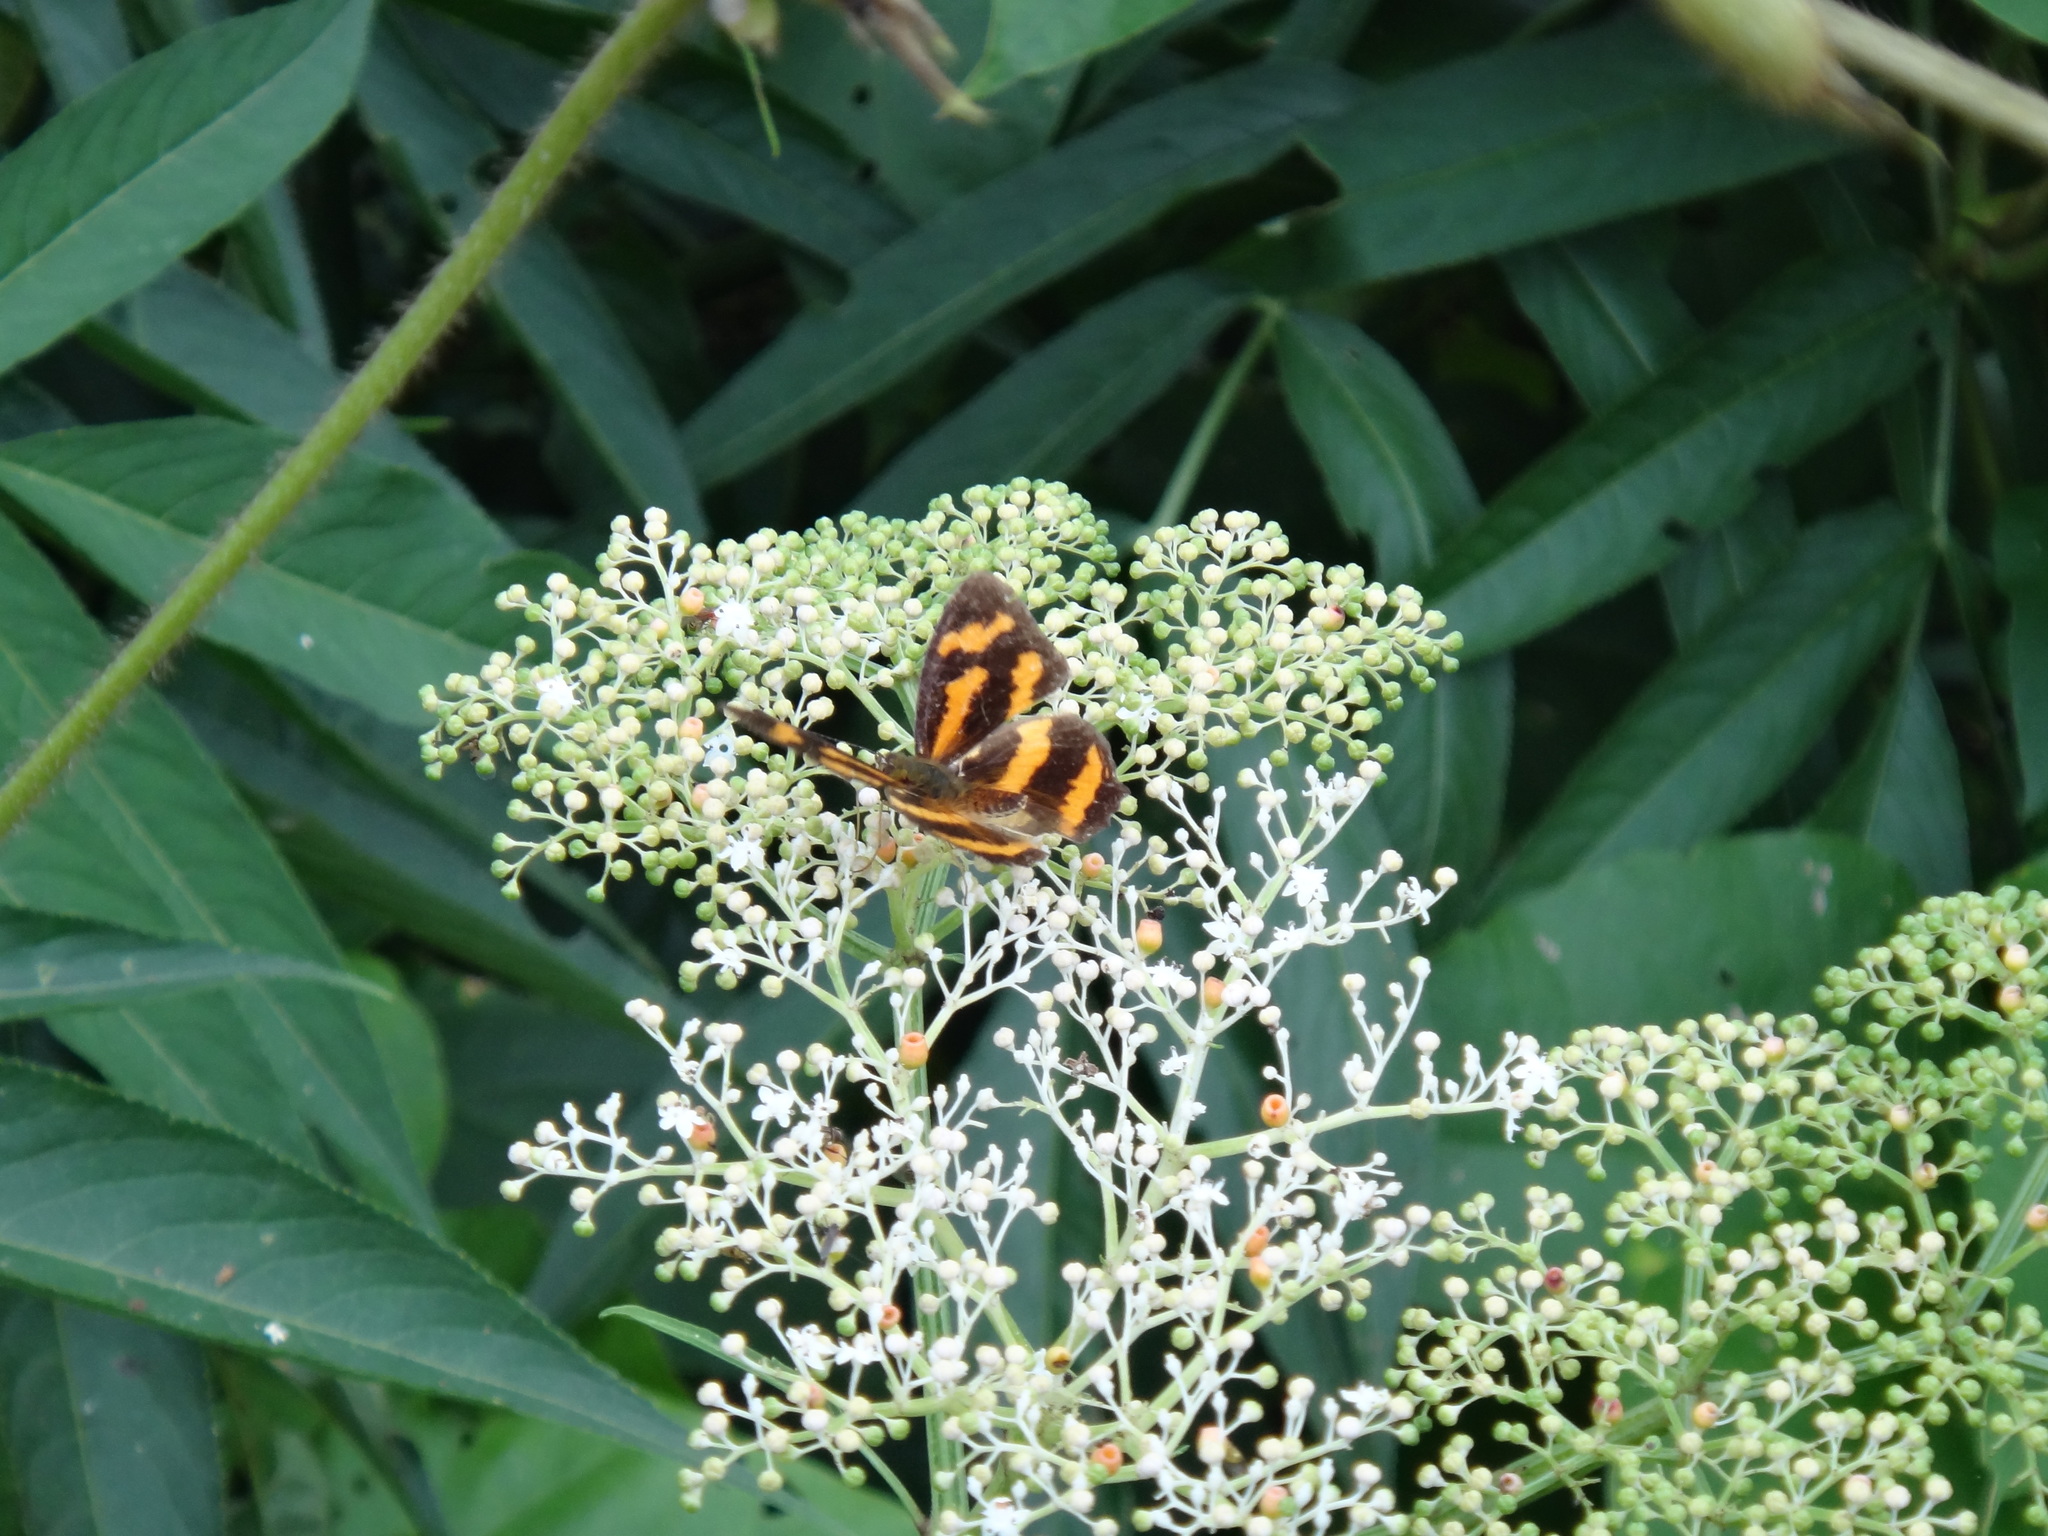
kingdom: Animalia
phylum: Arthropoda
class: Insecta
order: Lepidoptera
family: Nymphalidae
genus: Symbrenthia
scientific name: Symbrenthia brabira
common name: Yellow jester
